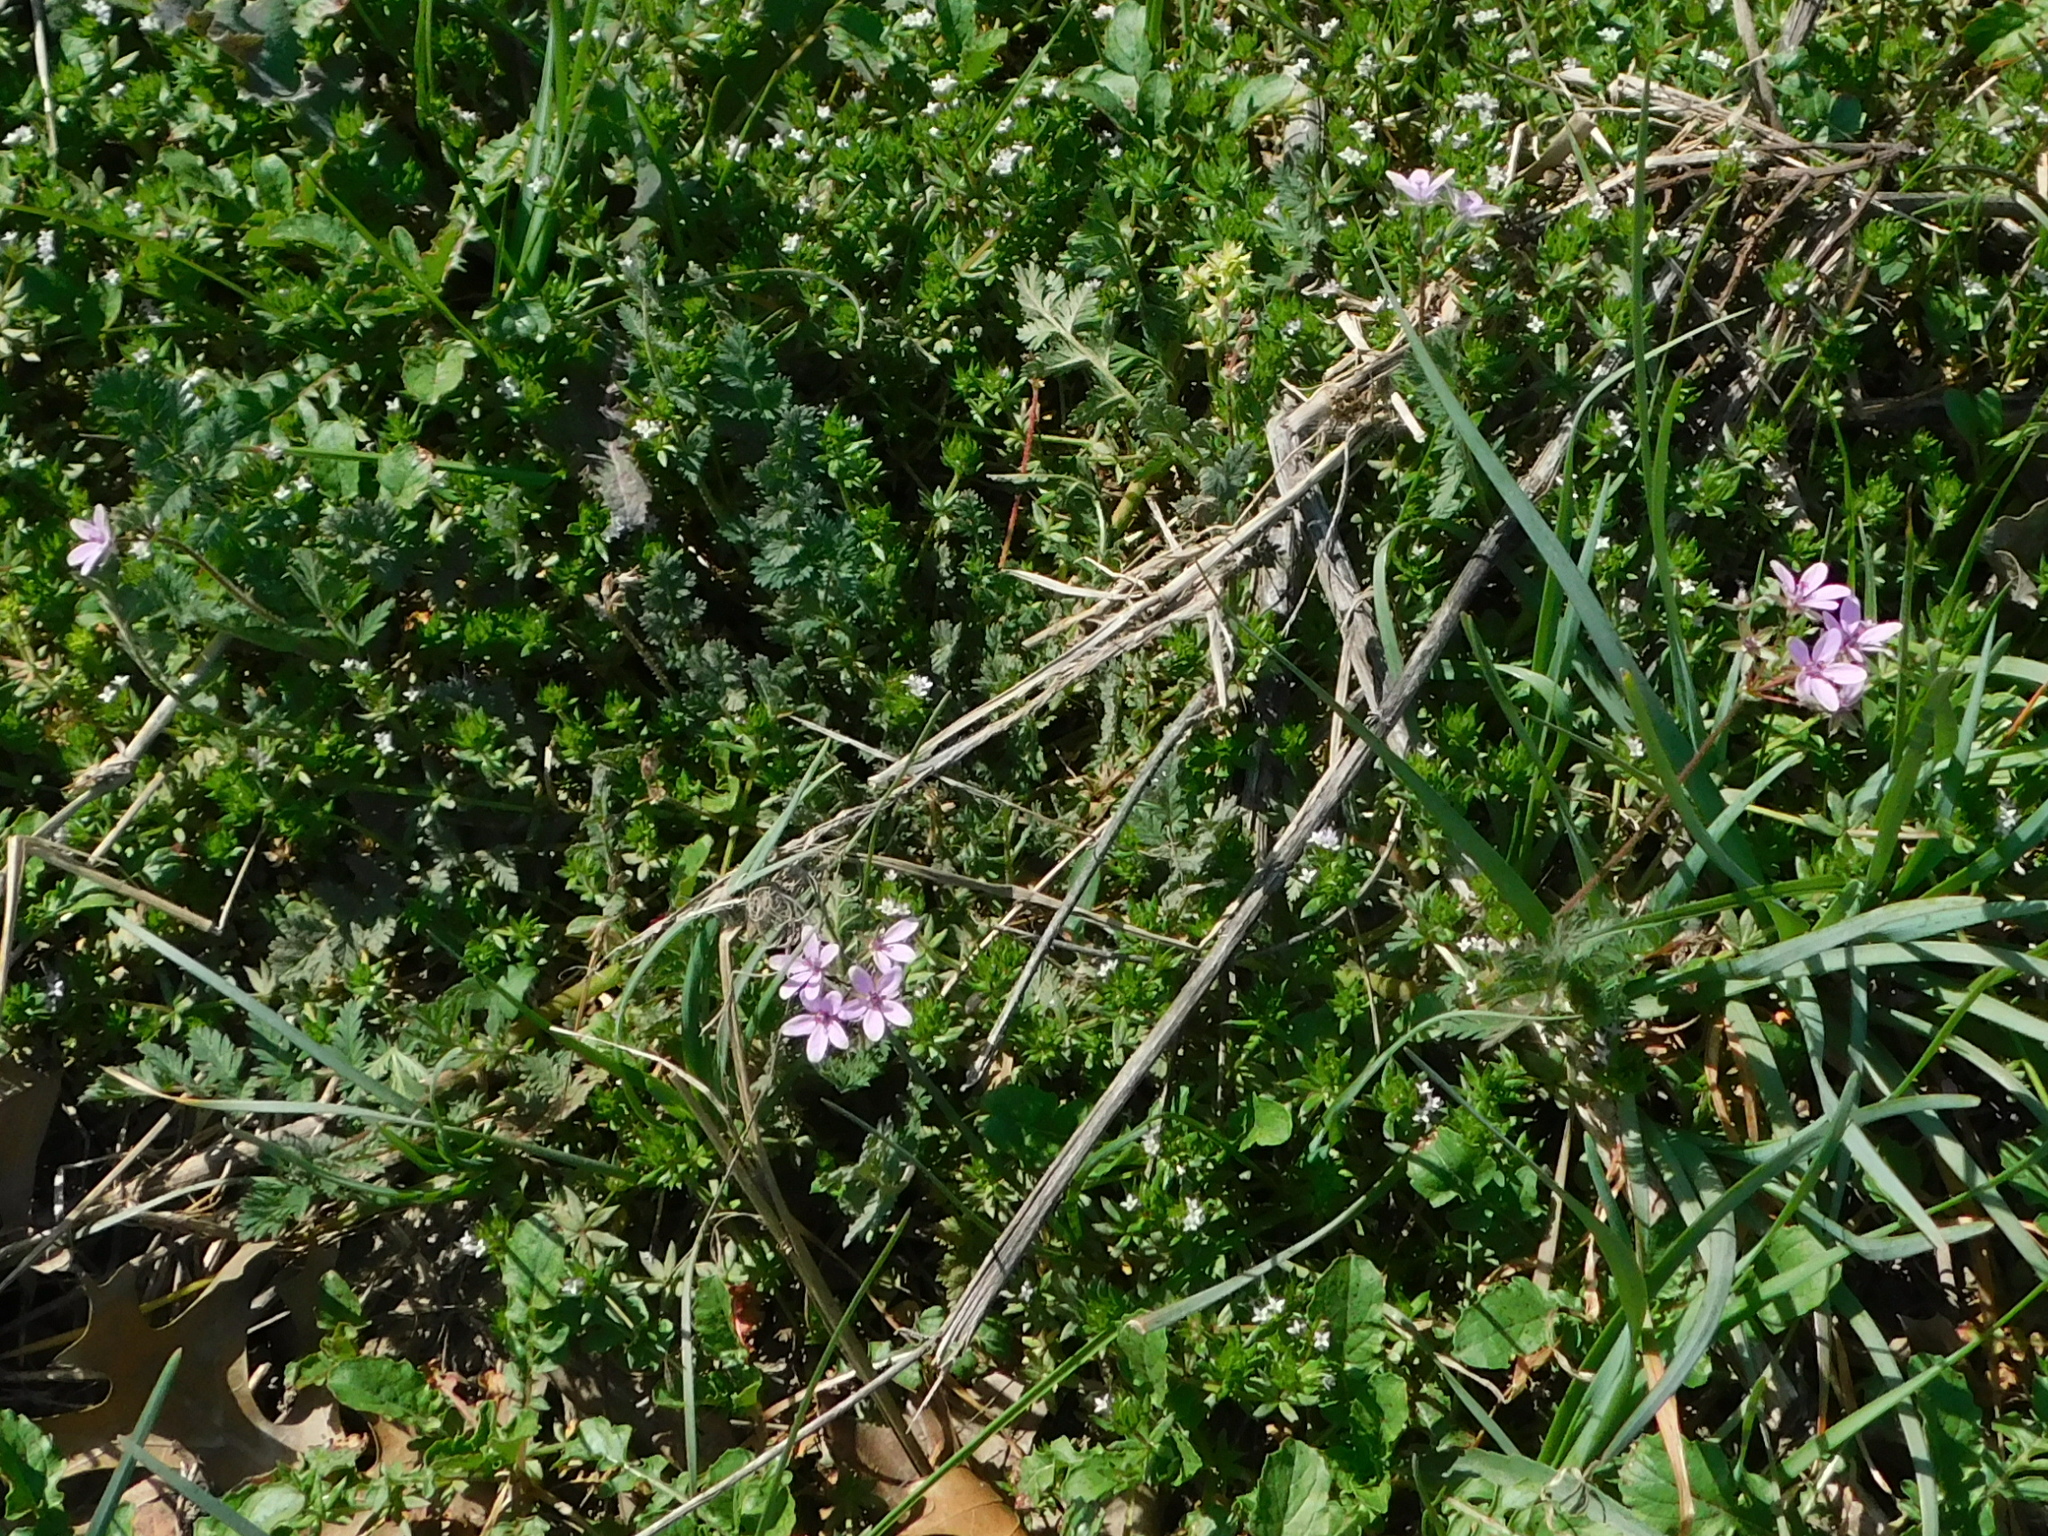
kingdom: Plantae
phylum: Tracheophyta
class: Magnoliopsida
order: Geraniales
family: Geraniaceae
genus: Erodium
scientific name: Erodium cicutarium
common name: Common stork's-bill
